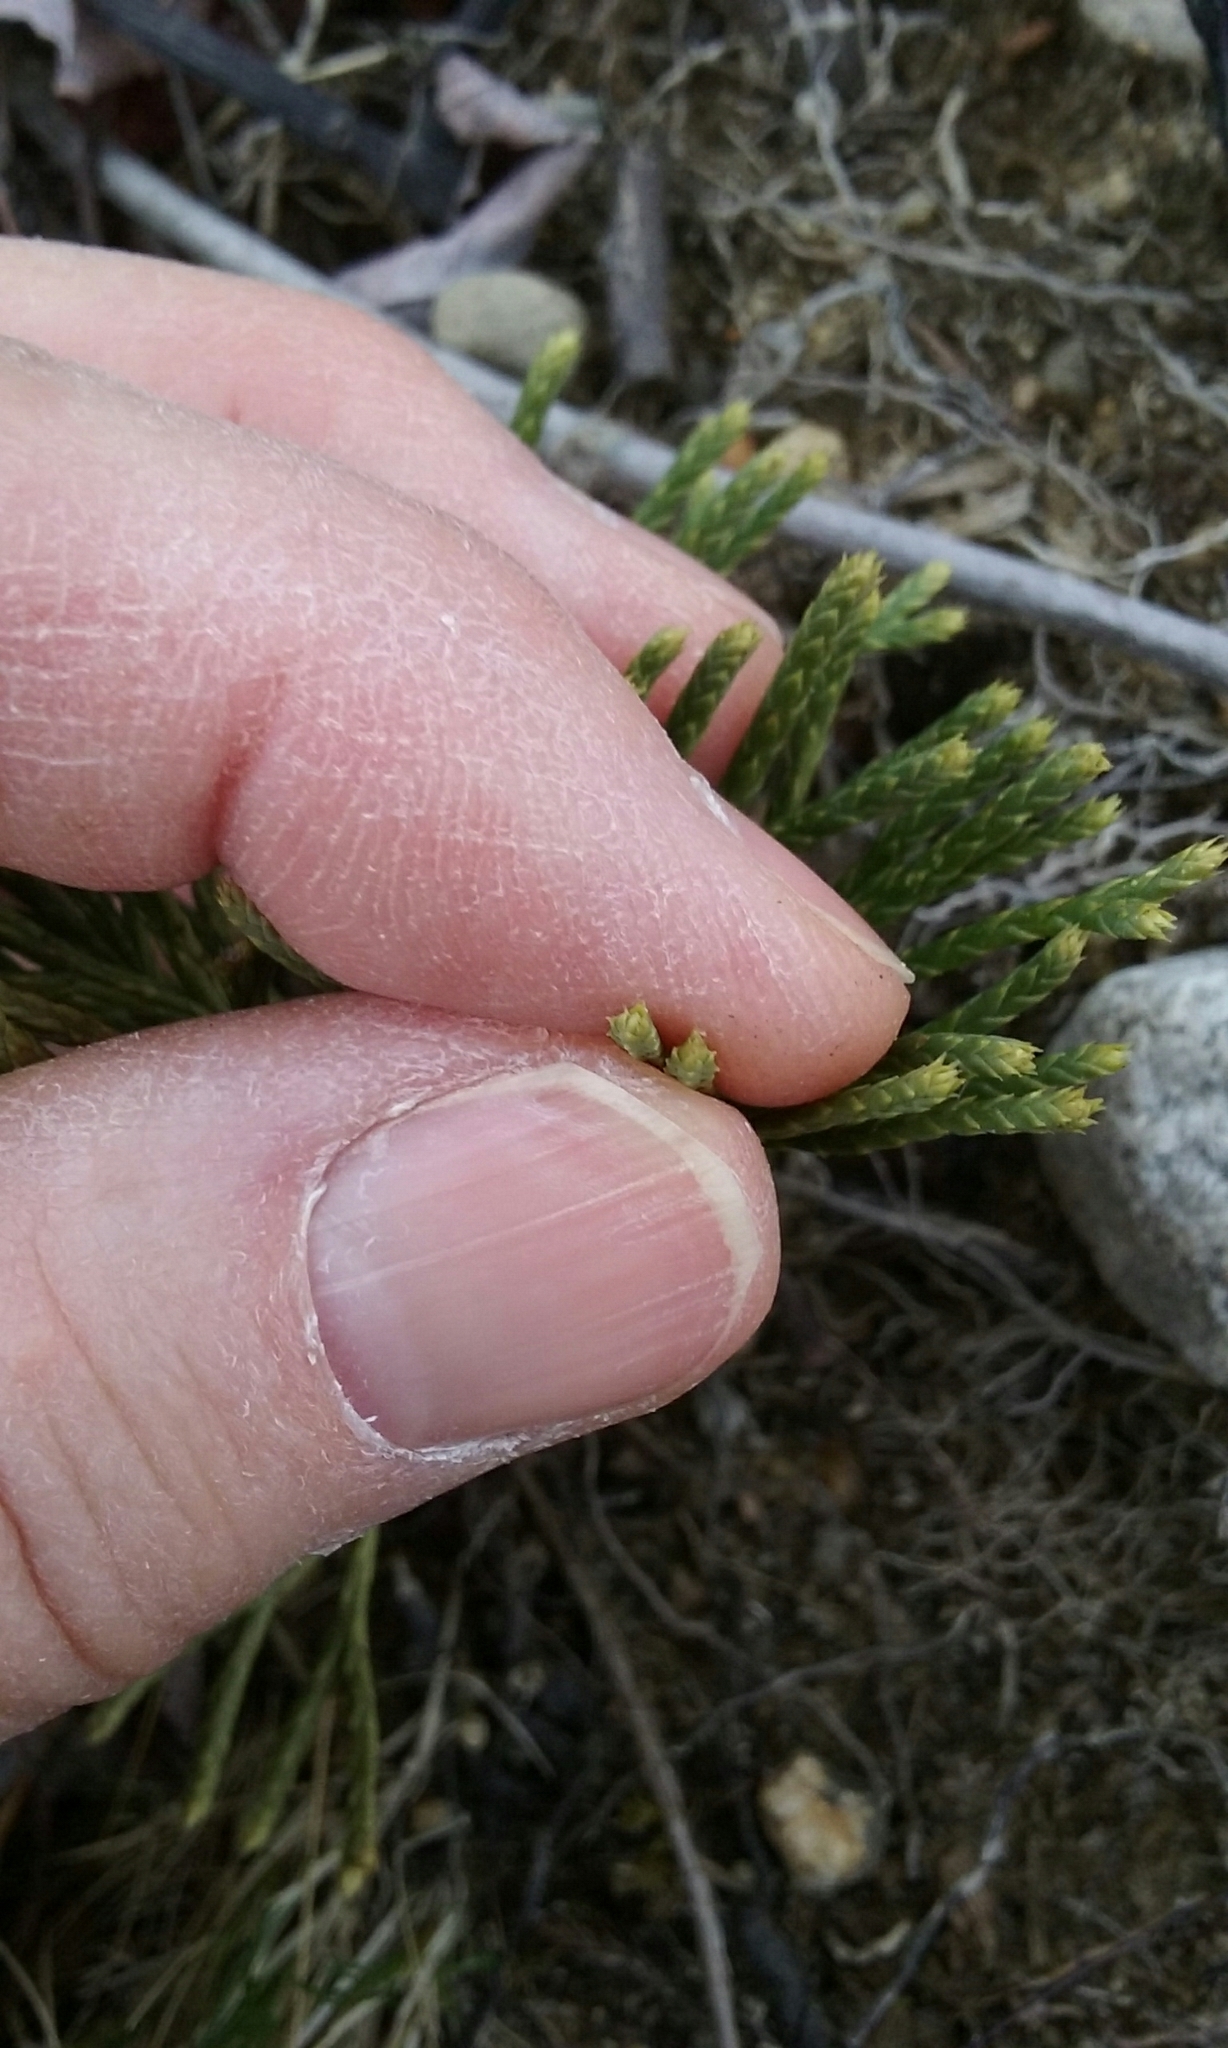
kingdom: Plantae
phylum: Tracheophyta
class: Lycopodiopsida
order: Lycopodiales
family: Lycopodiaceae
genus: Diphasiastrum
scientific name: Diphasiastrum tristachyum
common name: Blue ground-cedar
